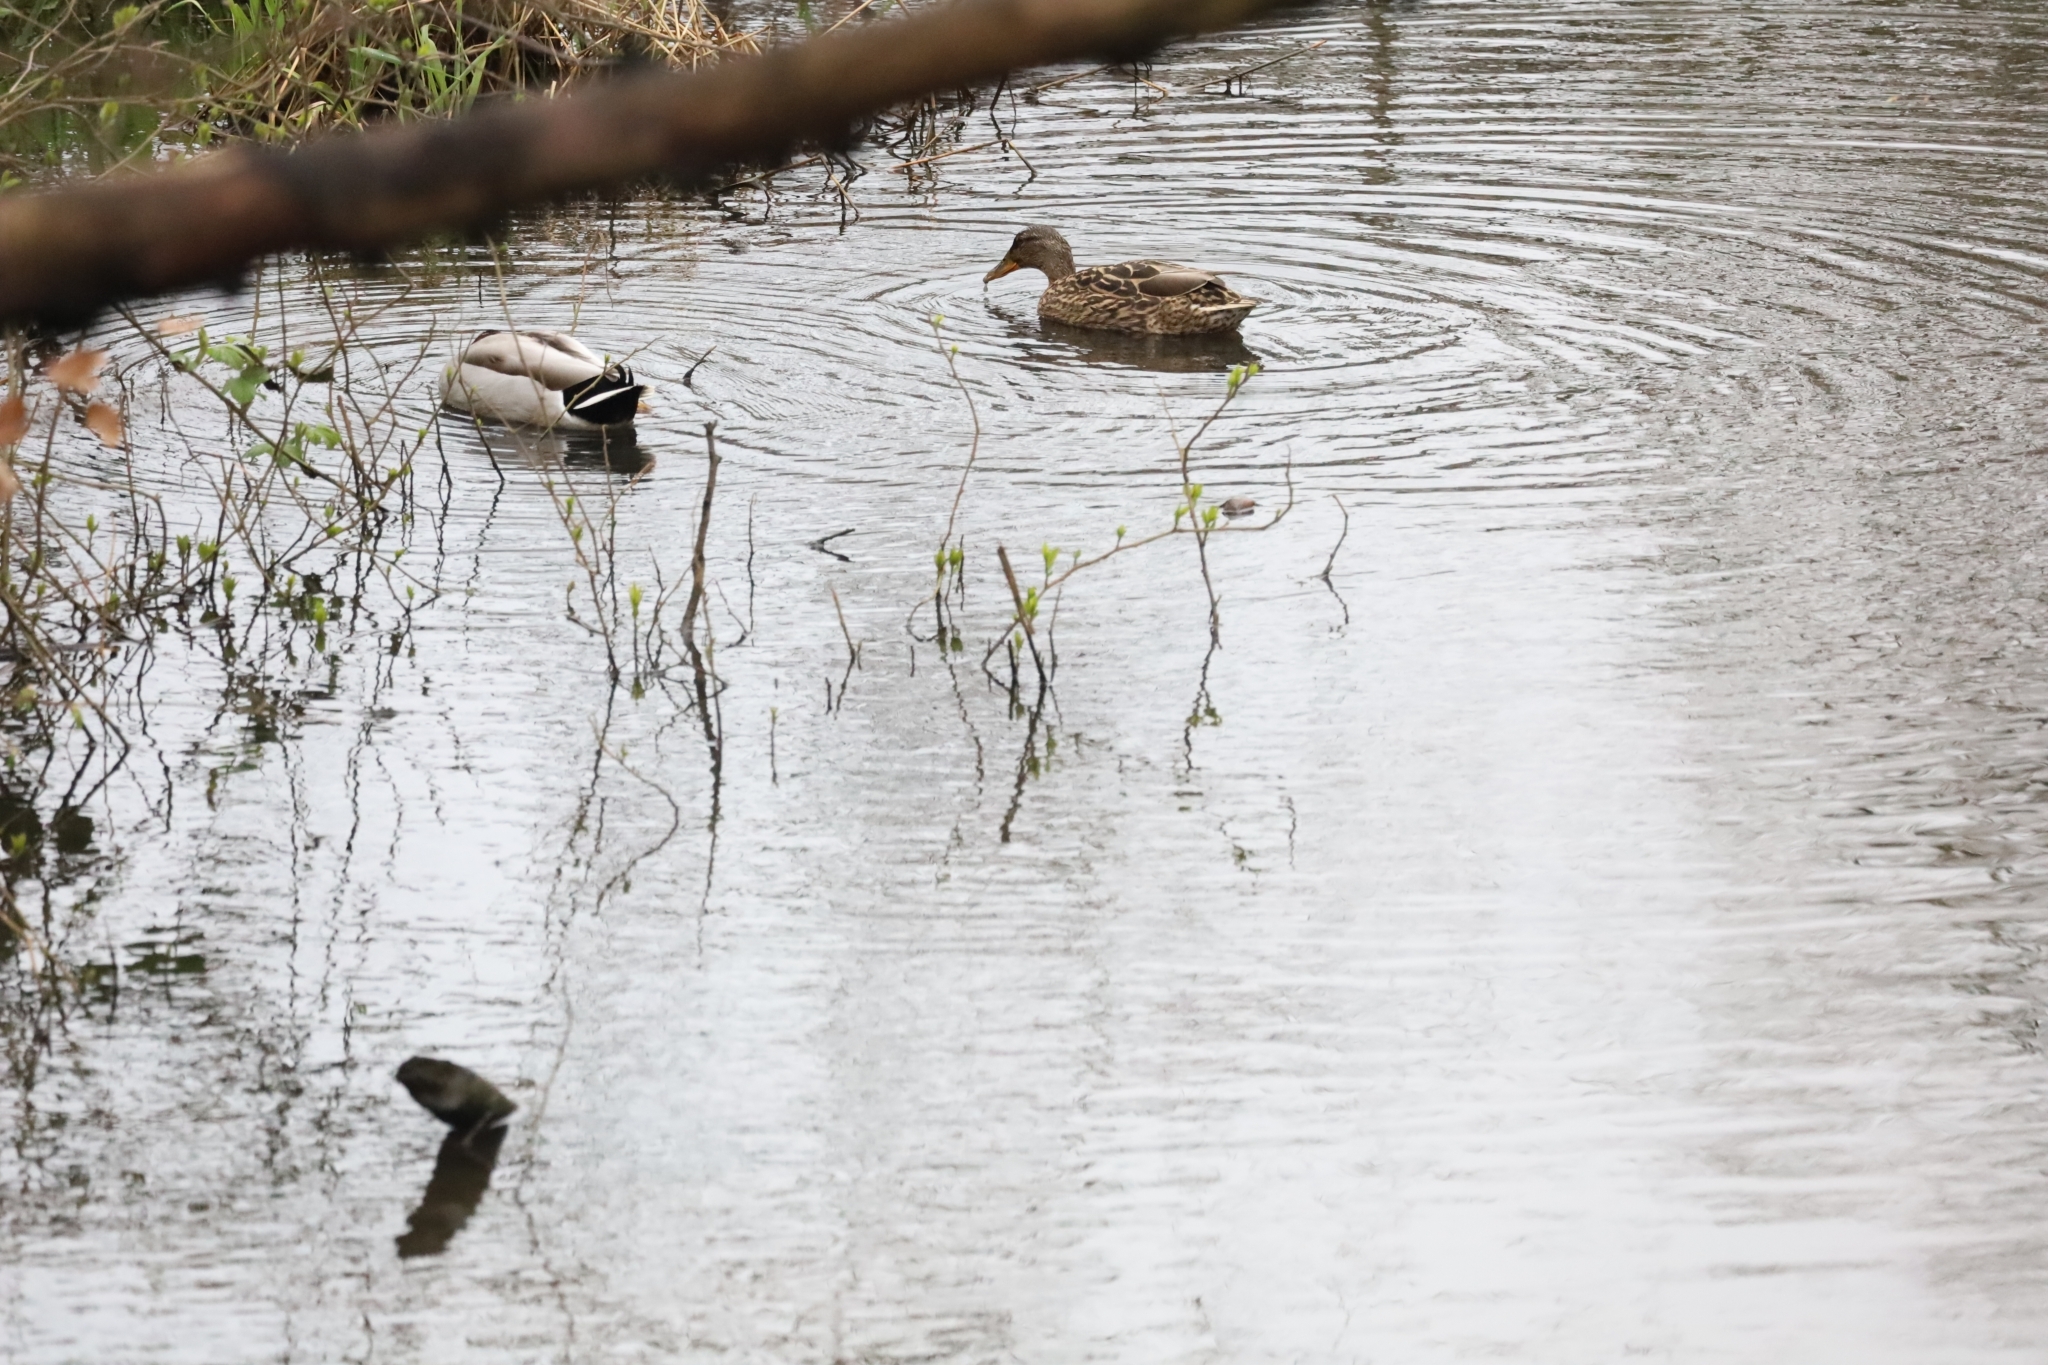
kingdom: Animalia
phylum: Chordata
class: Aves
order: Anseriformes
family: Anatidae
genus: Anas
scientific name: Anas platyrhynchos
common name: Mallard
